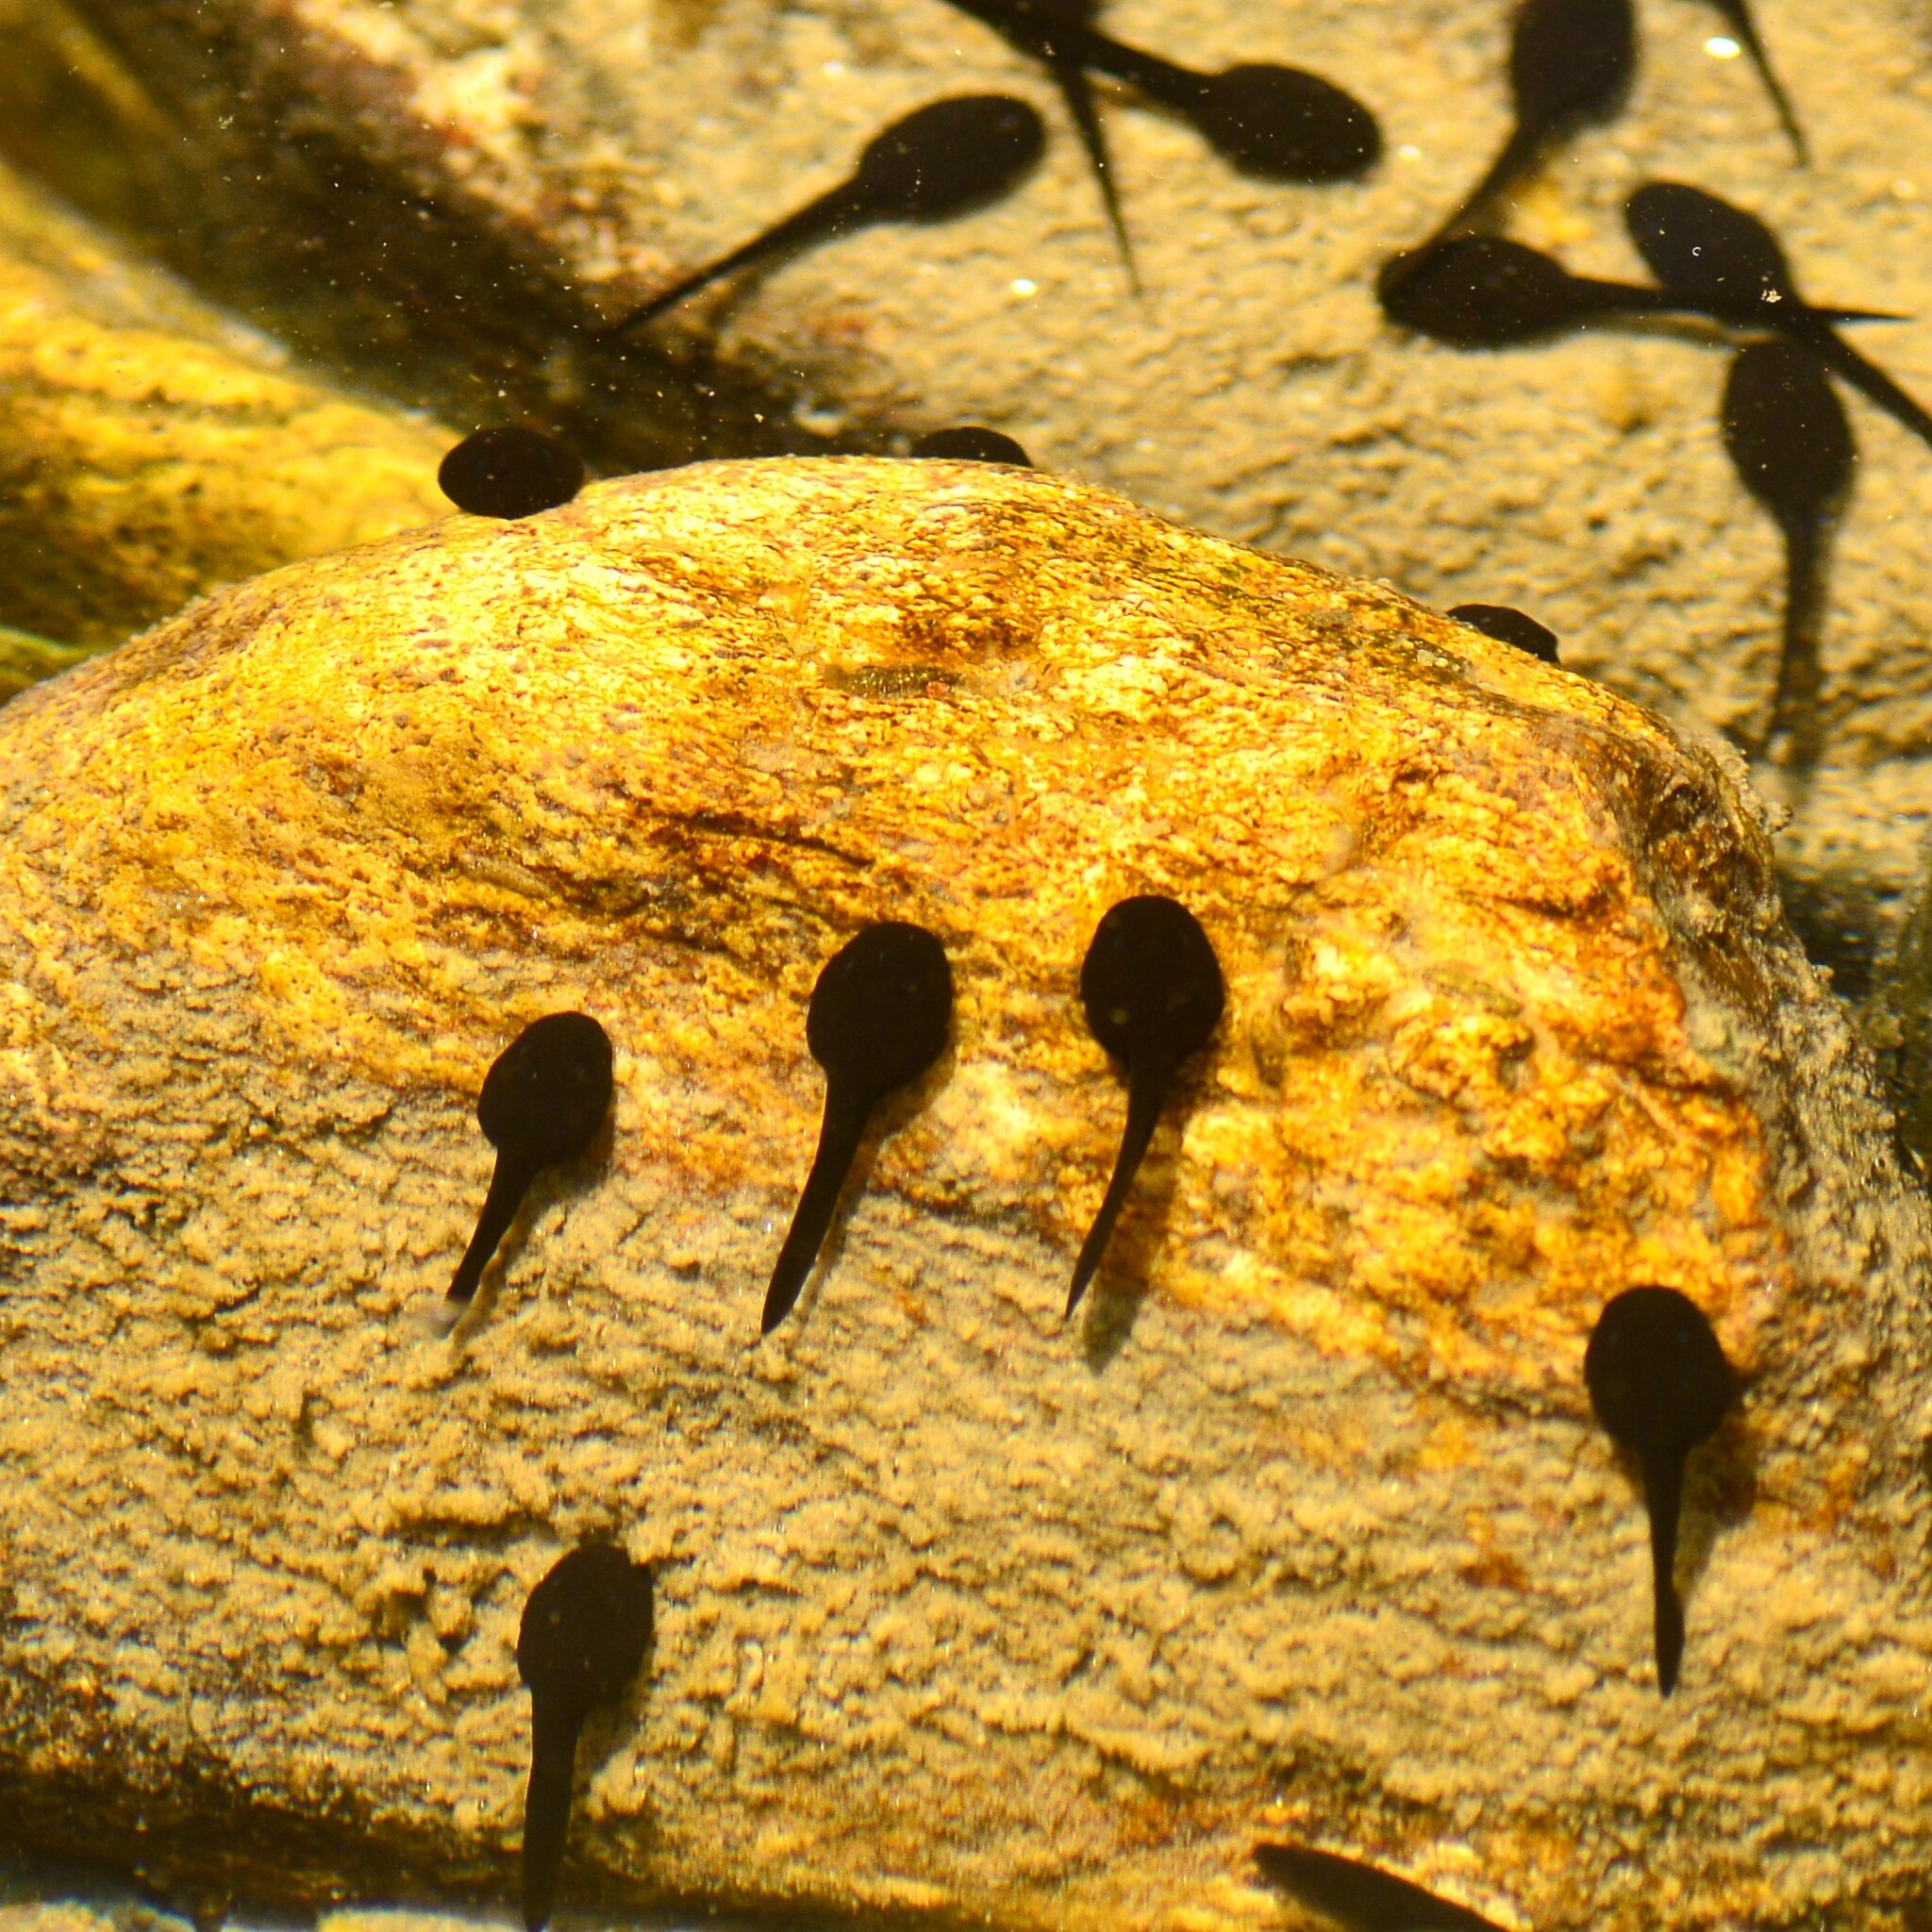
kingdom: Animalia
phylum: Chordata
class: Amphibia
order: Anura
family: Bufonidae
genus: Duttaphrynus
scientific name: Duttaphrynus himalayanus
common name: Günther's high altitude toad
